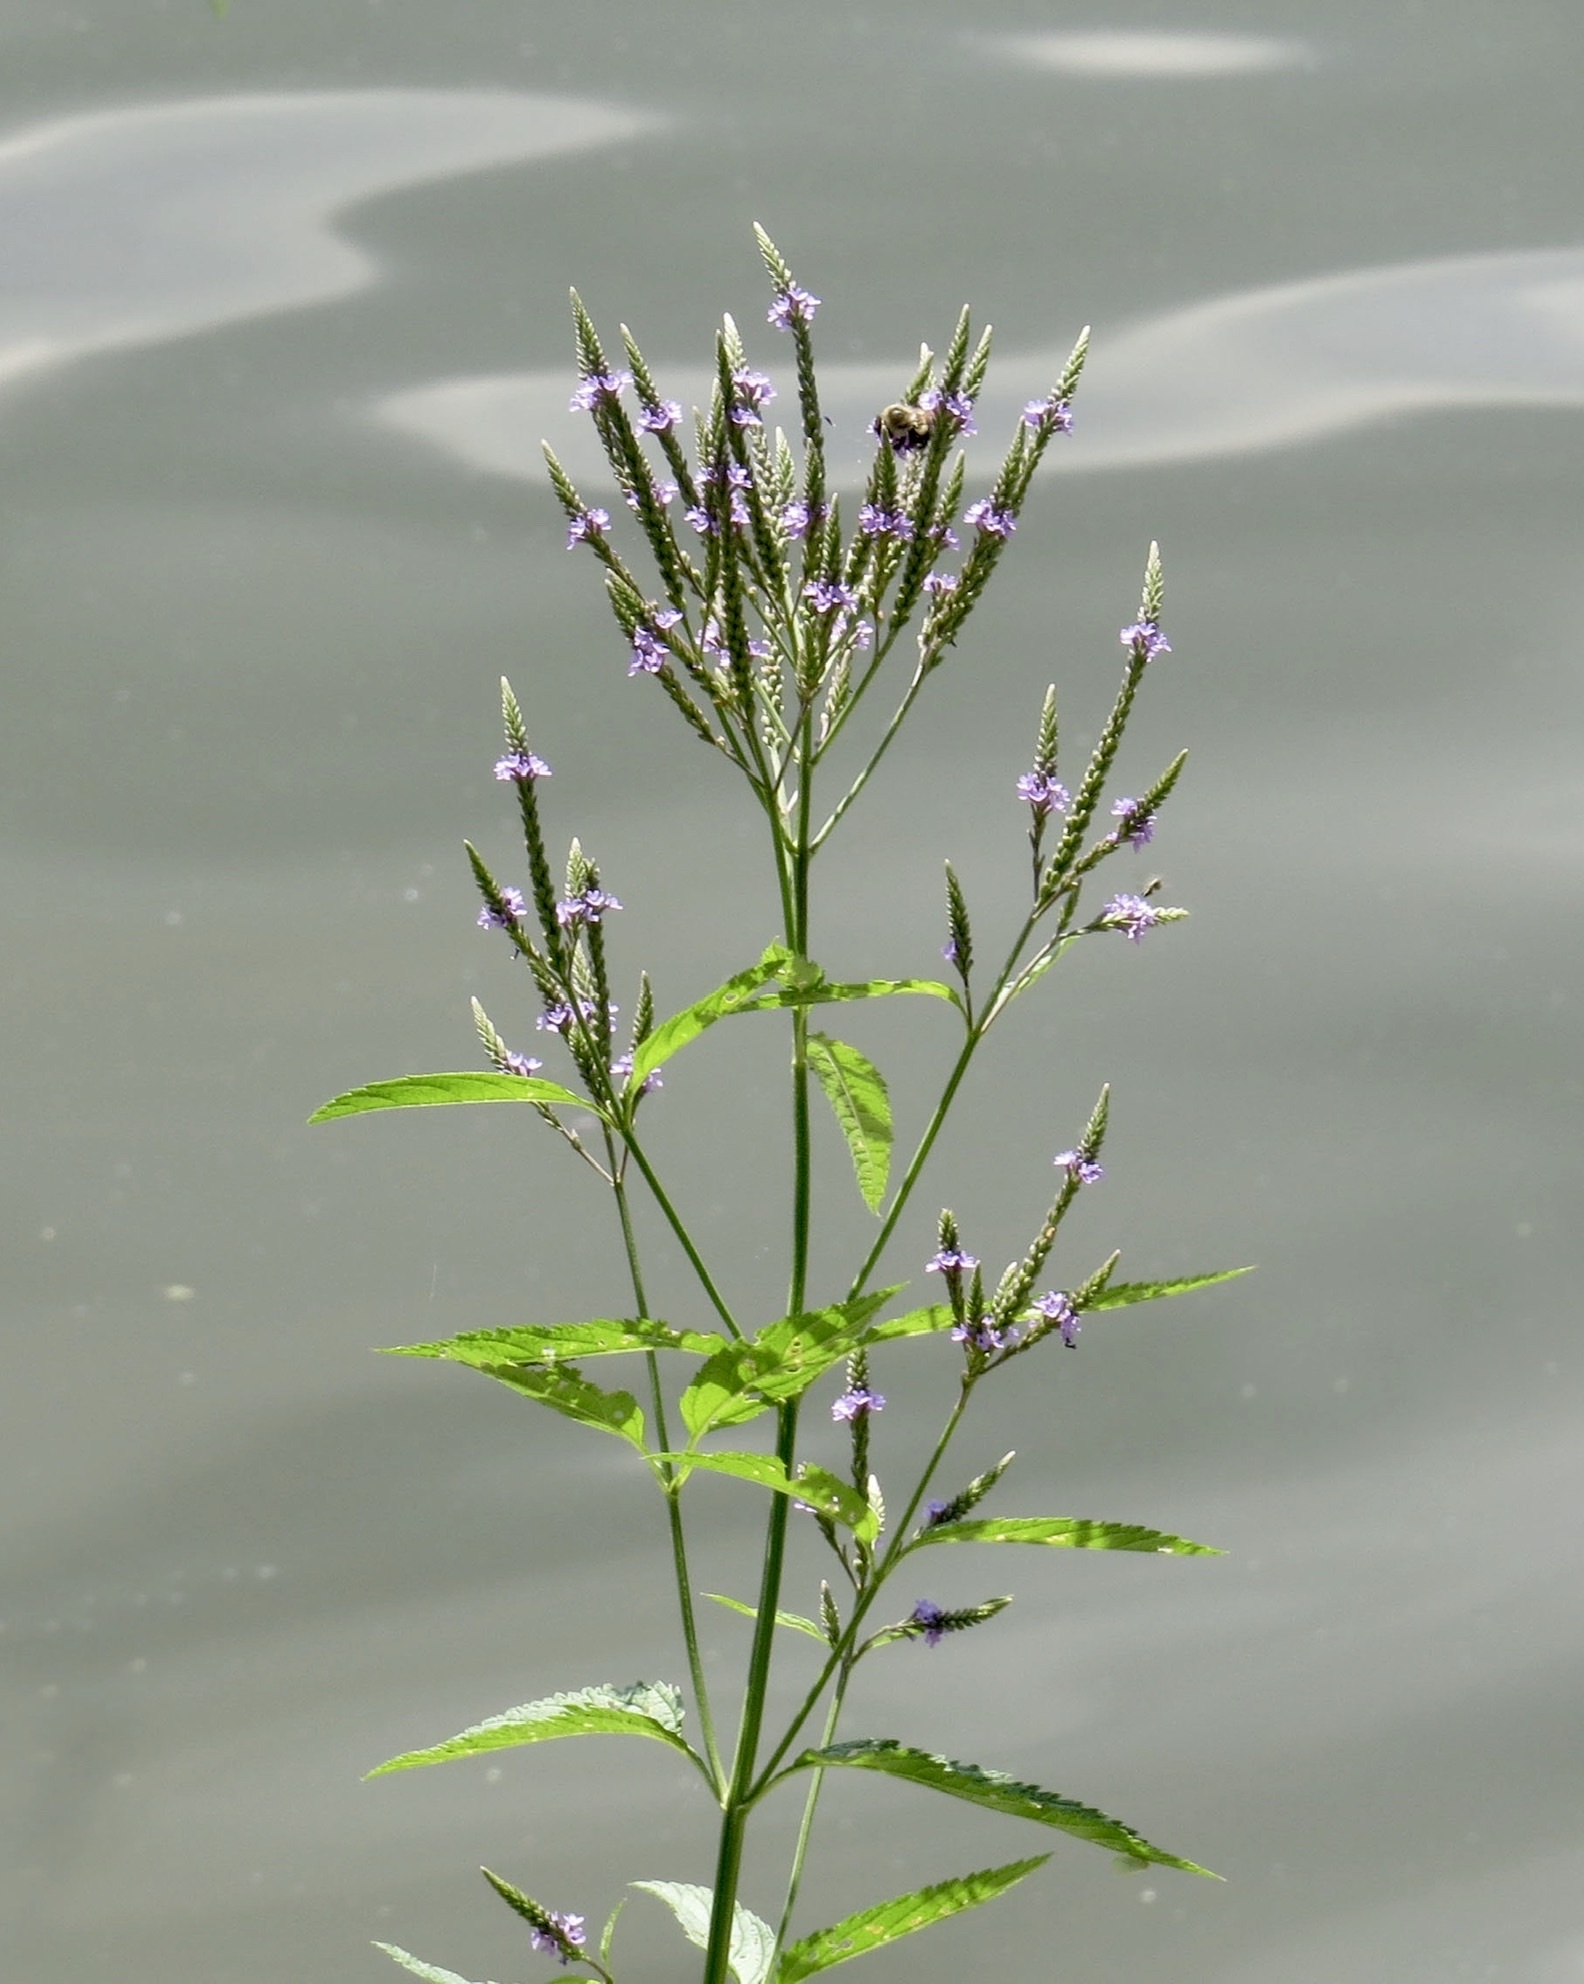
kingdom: Plantae
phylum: Tracheophyta
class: Magnoliopsida
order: Lamiales
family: Verbenaceae
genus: Verbena
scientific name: Verbena hastata
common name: American blue vervain
